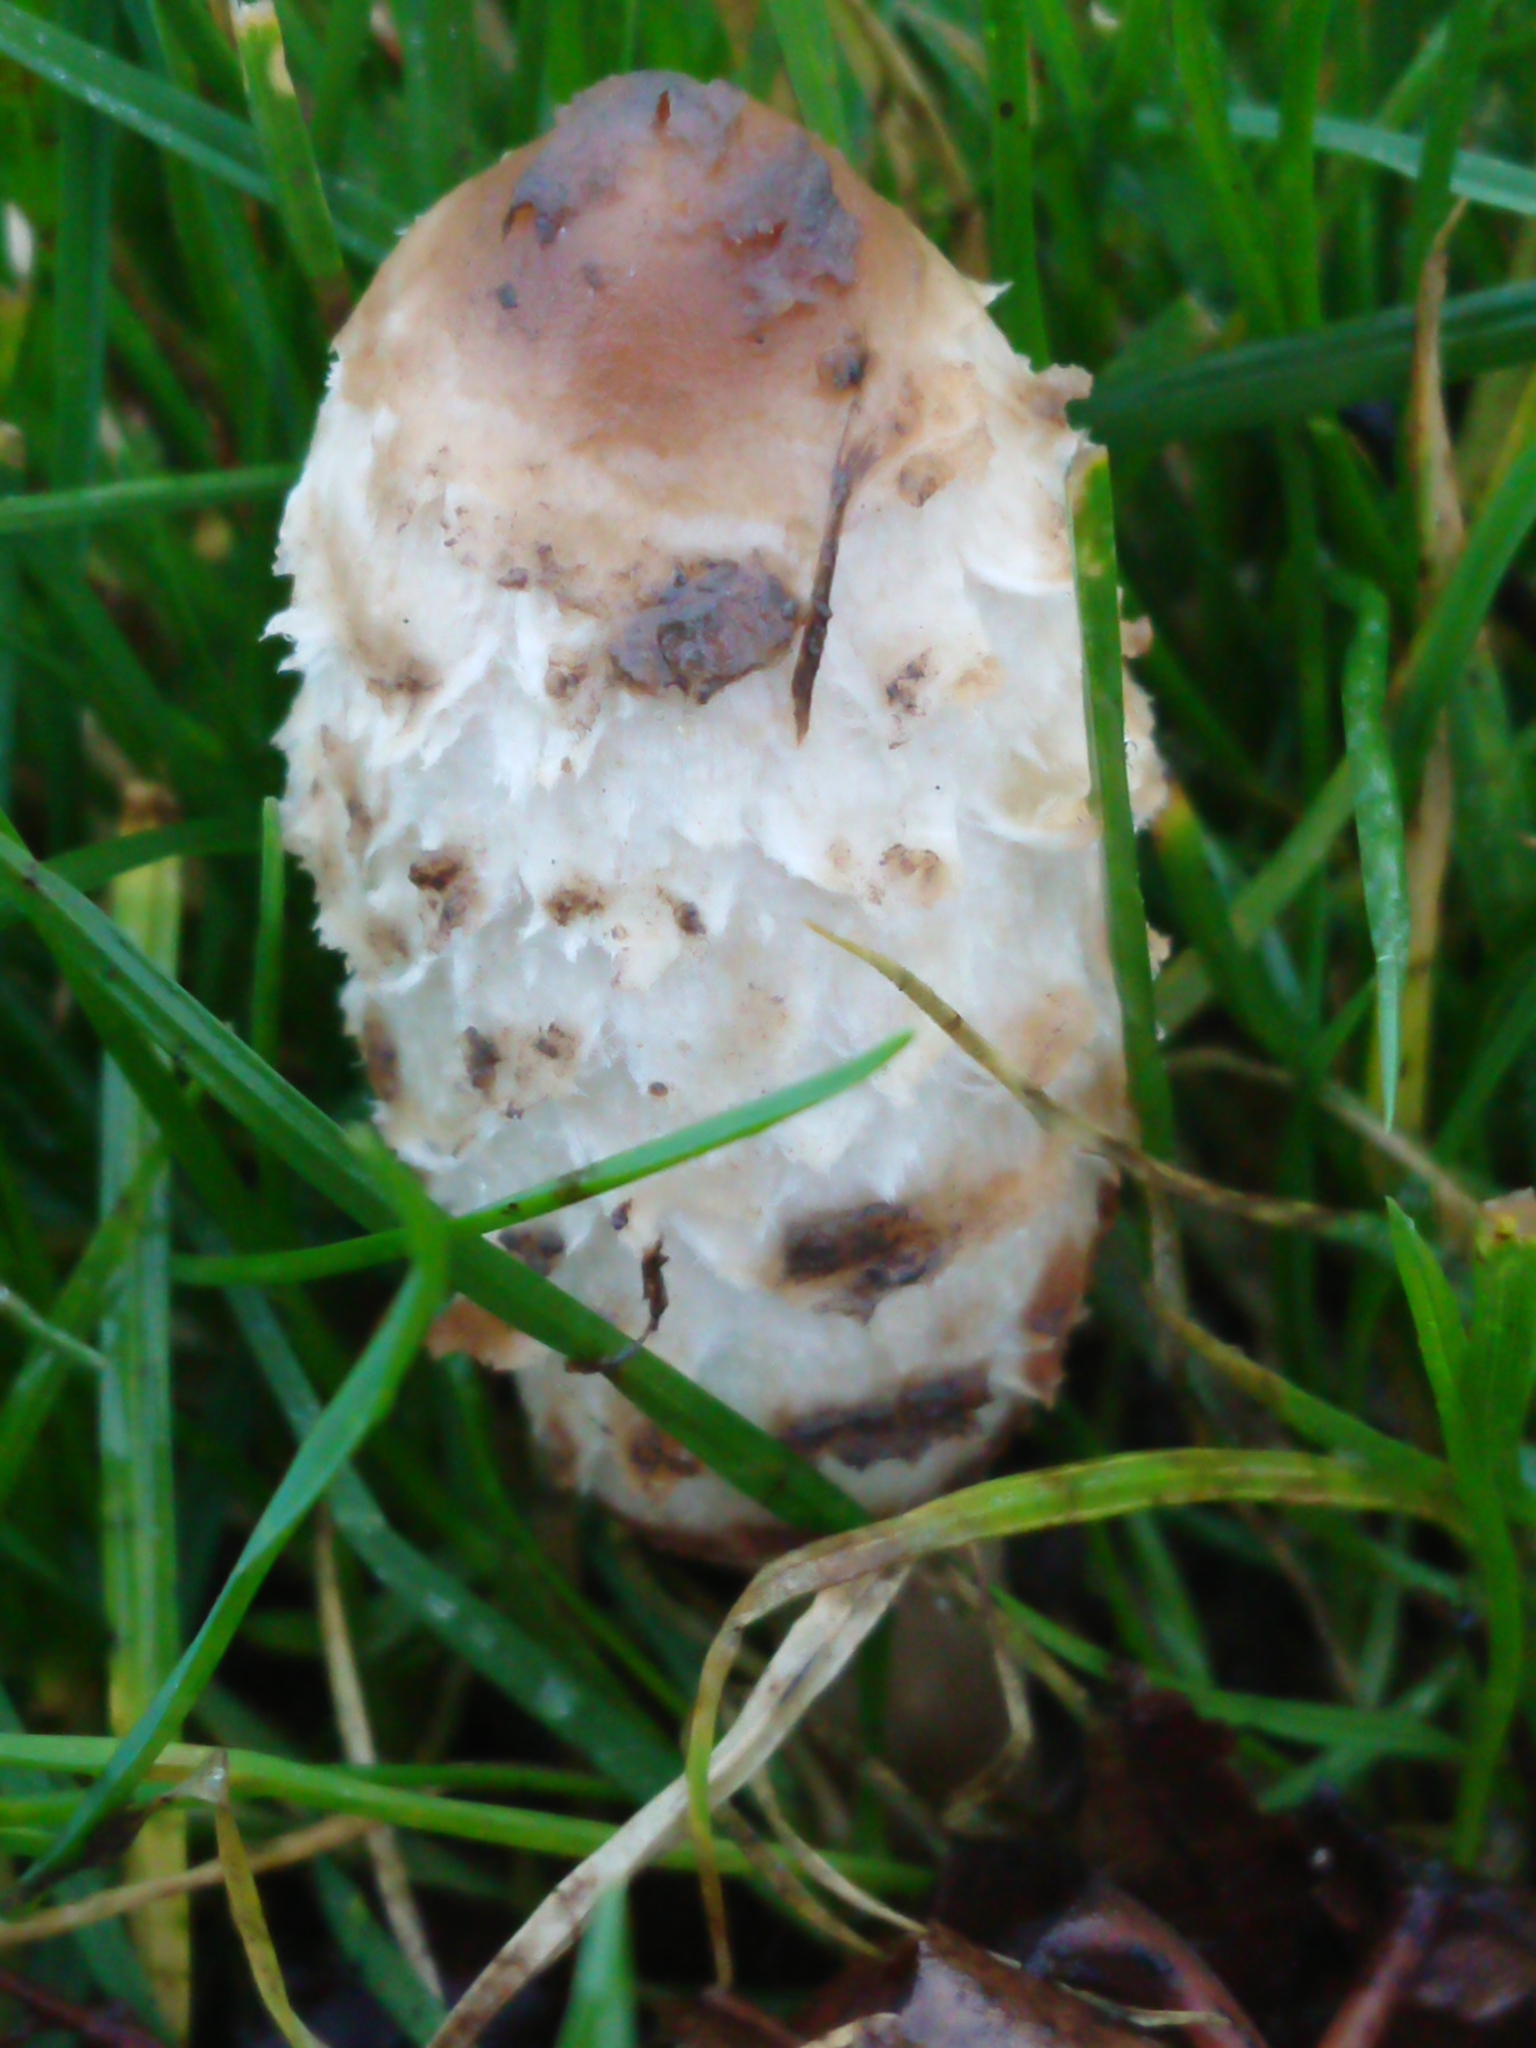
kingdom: Fungi
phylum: Basidiomycota
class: Agaricomycetes
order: Agaricales
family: Agaricaceae
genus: Coprinus
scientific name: Coprinus comatus
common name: Lawyer's wig
